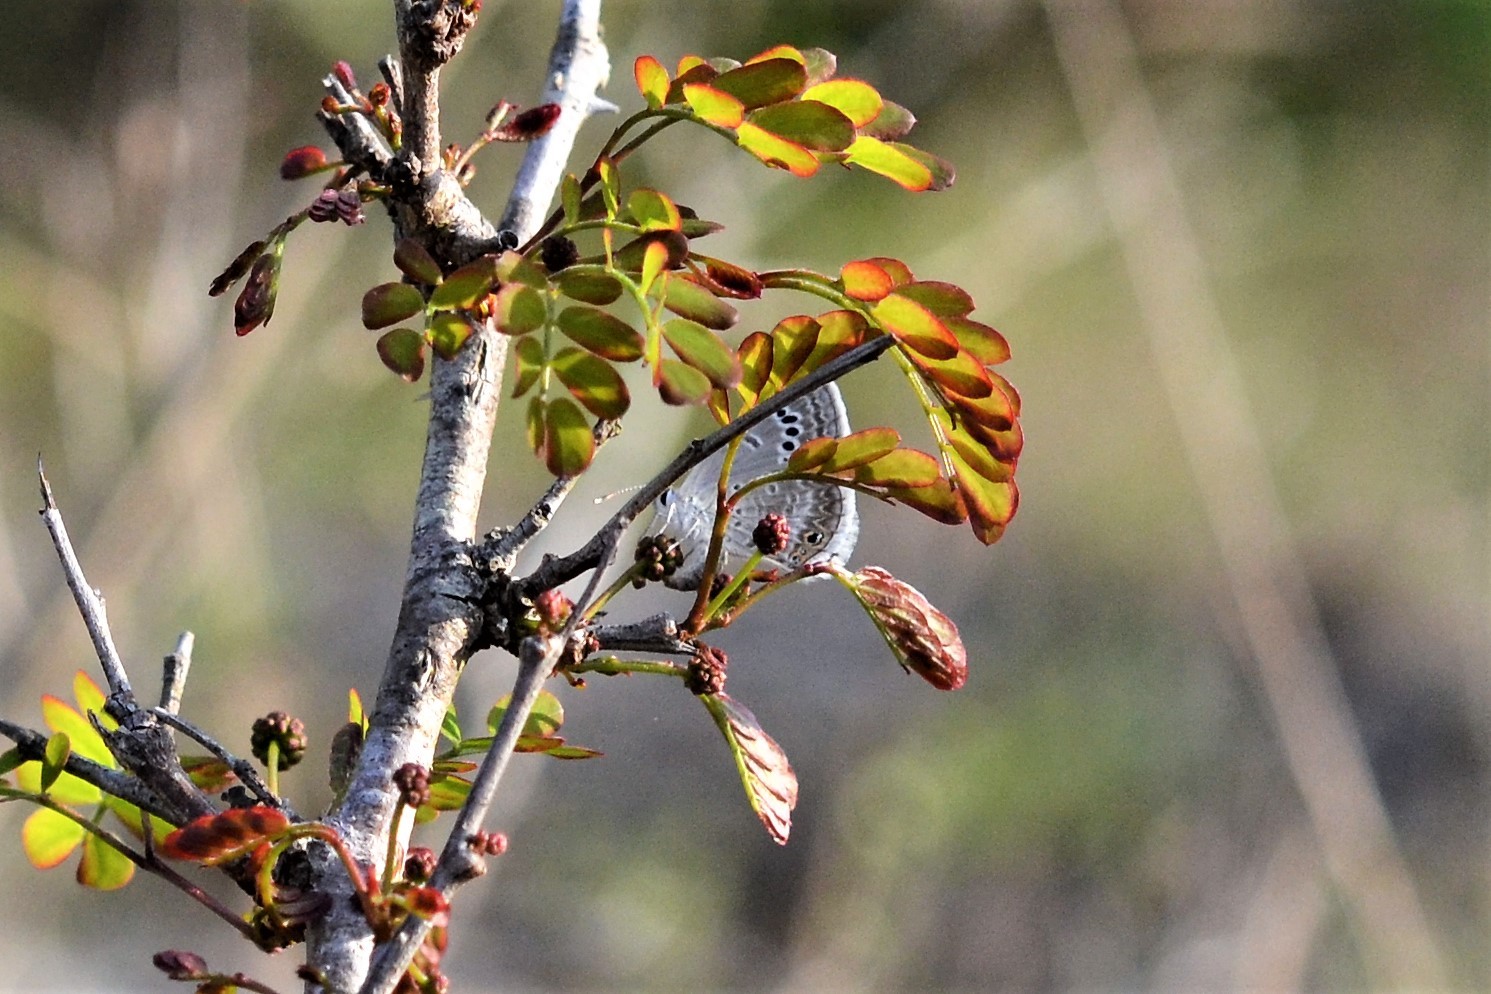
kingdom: Animalia
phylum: Arthropoda
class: Insecta
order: Lepidoptera
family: Lycaenidae
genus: Echinargus
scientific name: Echinargus isola
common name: Reakirt's blue
